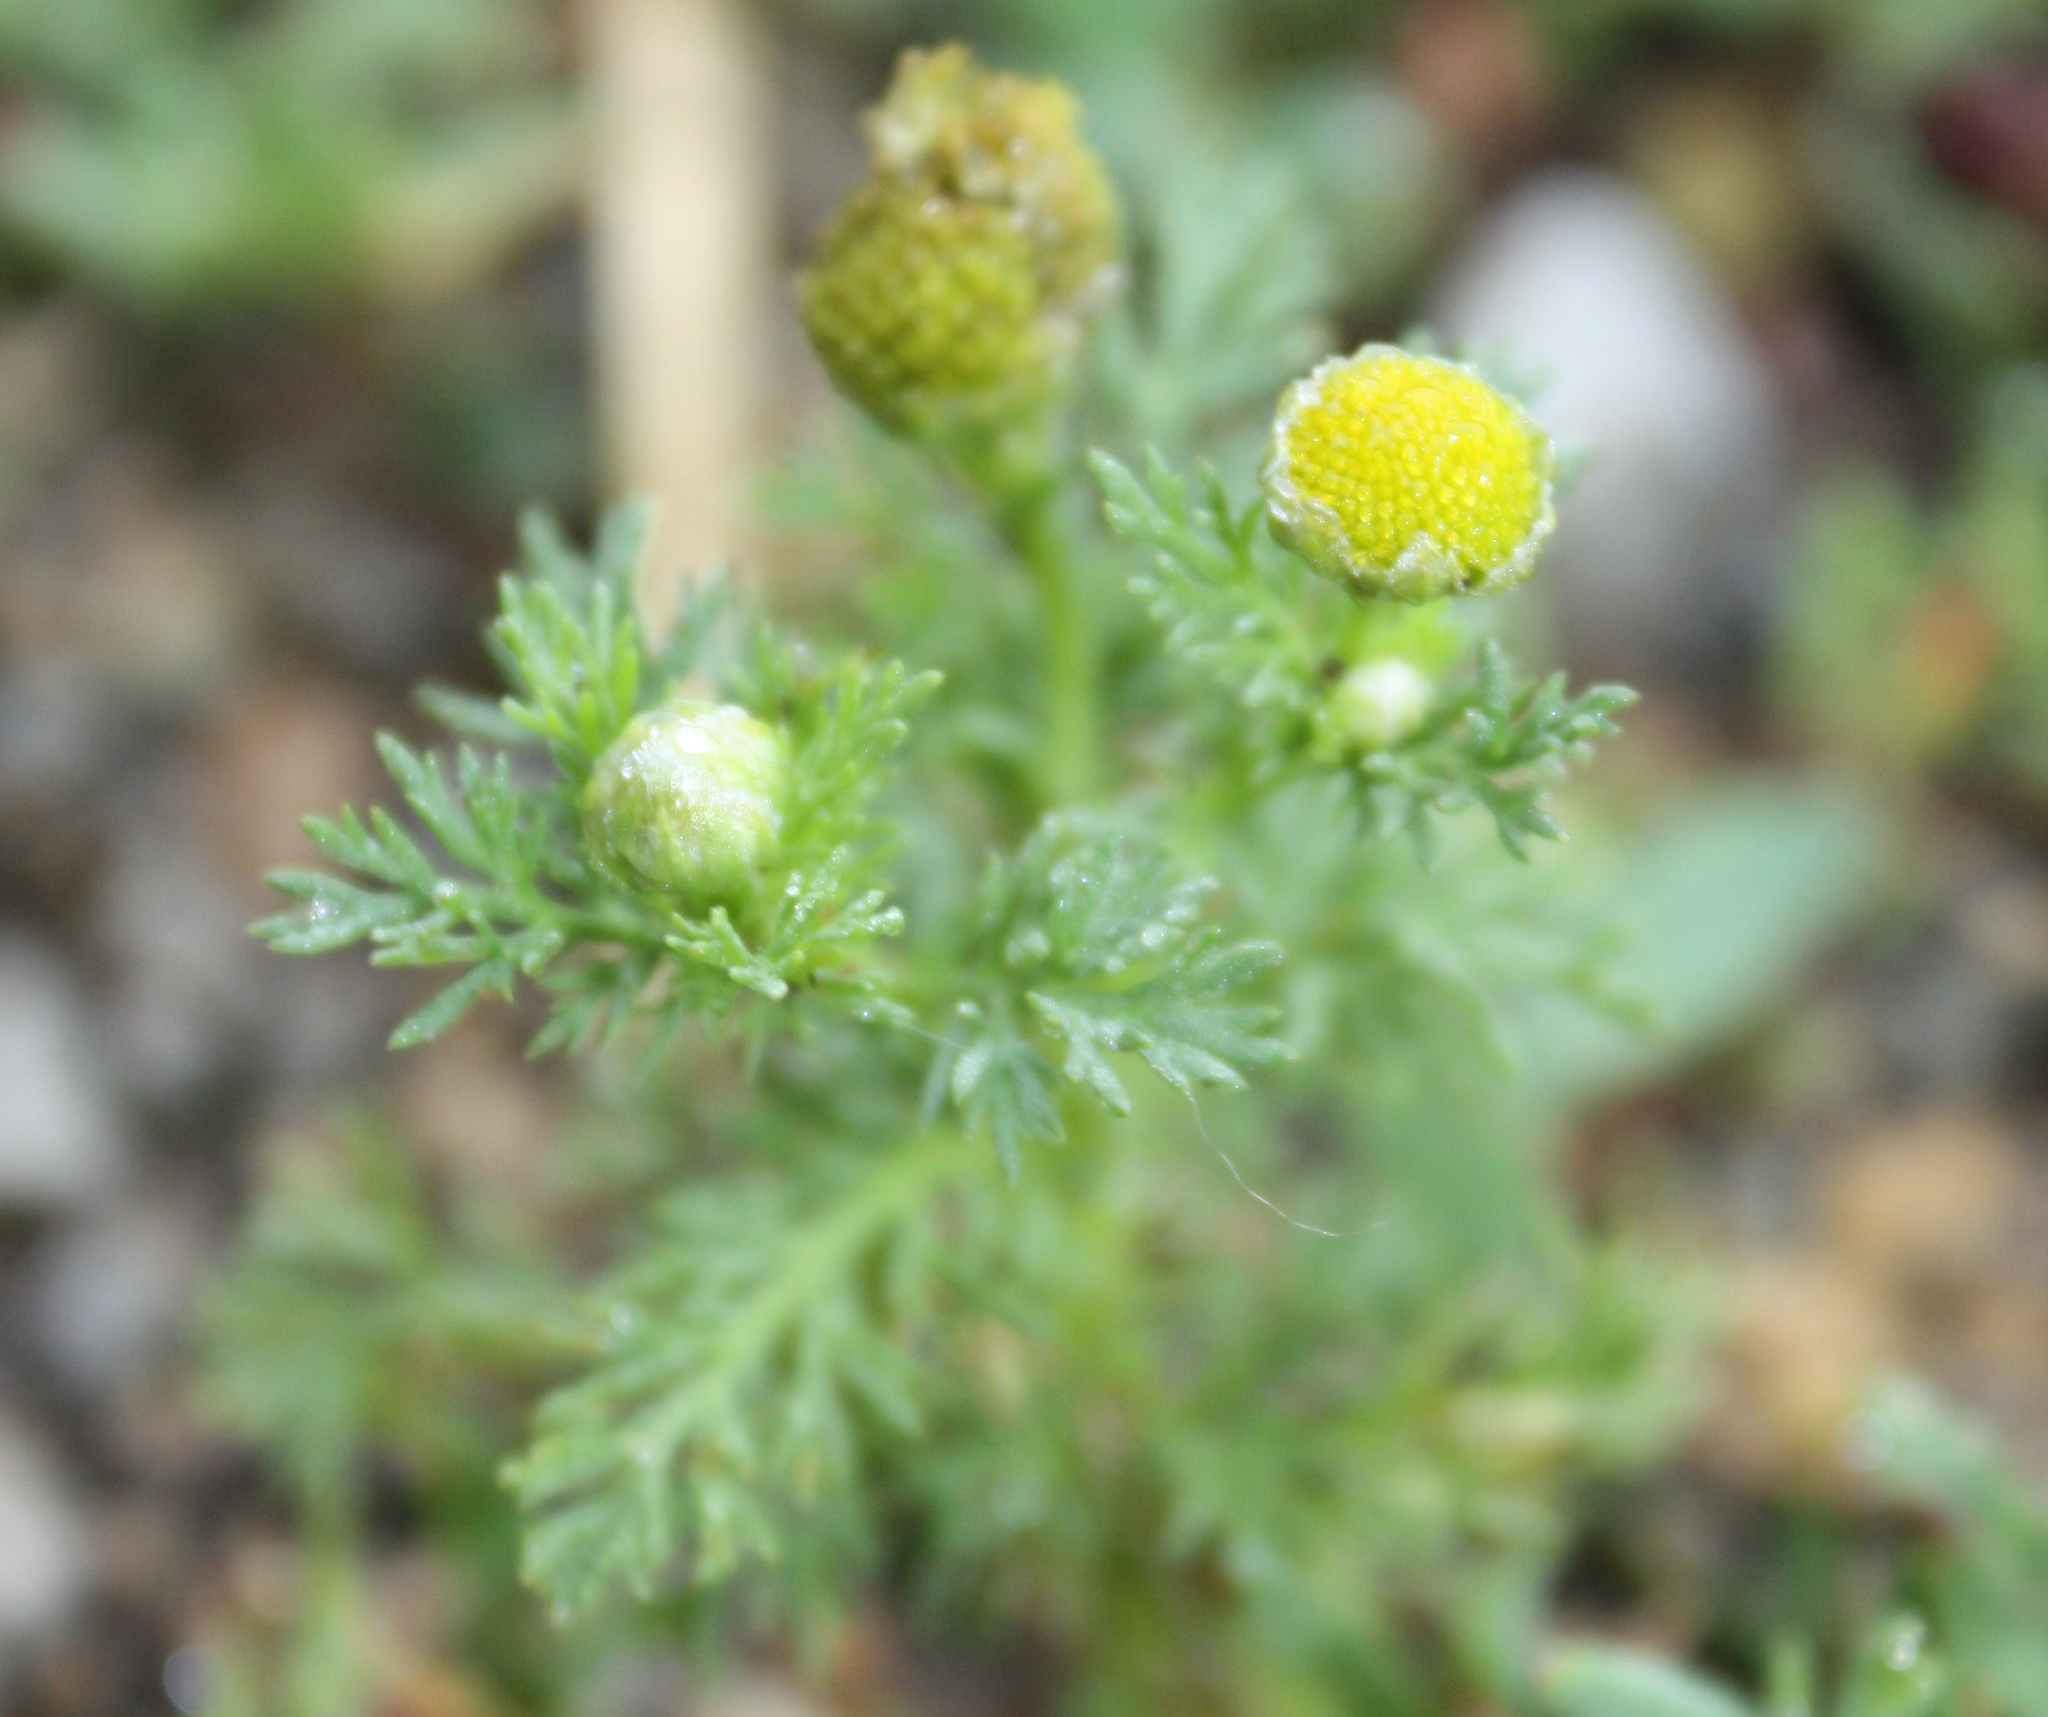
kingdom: Plantae
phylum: Tracheophyta
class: Magnoliopsida
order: Asterales
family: Asteraceae
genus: Matricaria
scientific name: Matricaria discoidea
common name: Disc mayweed
